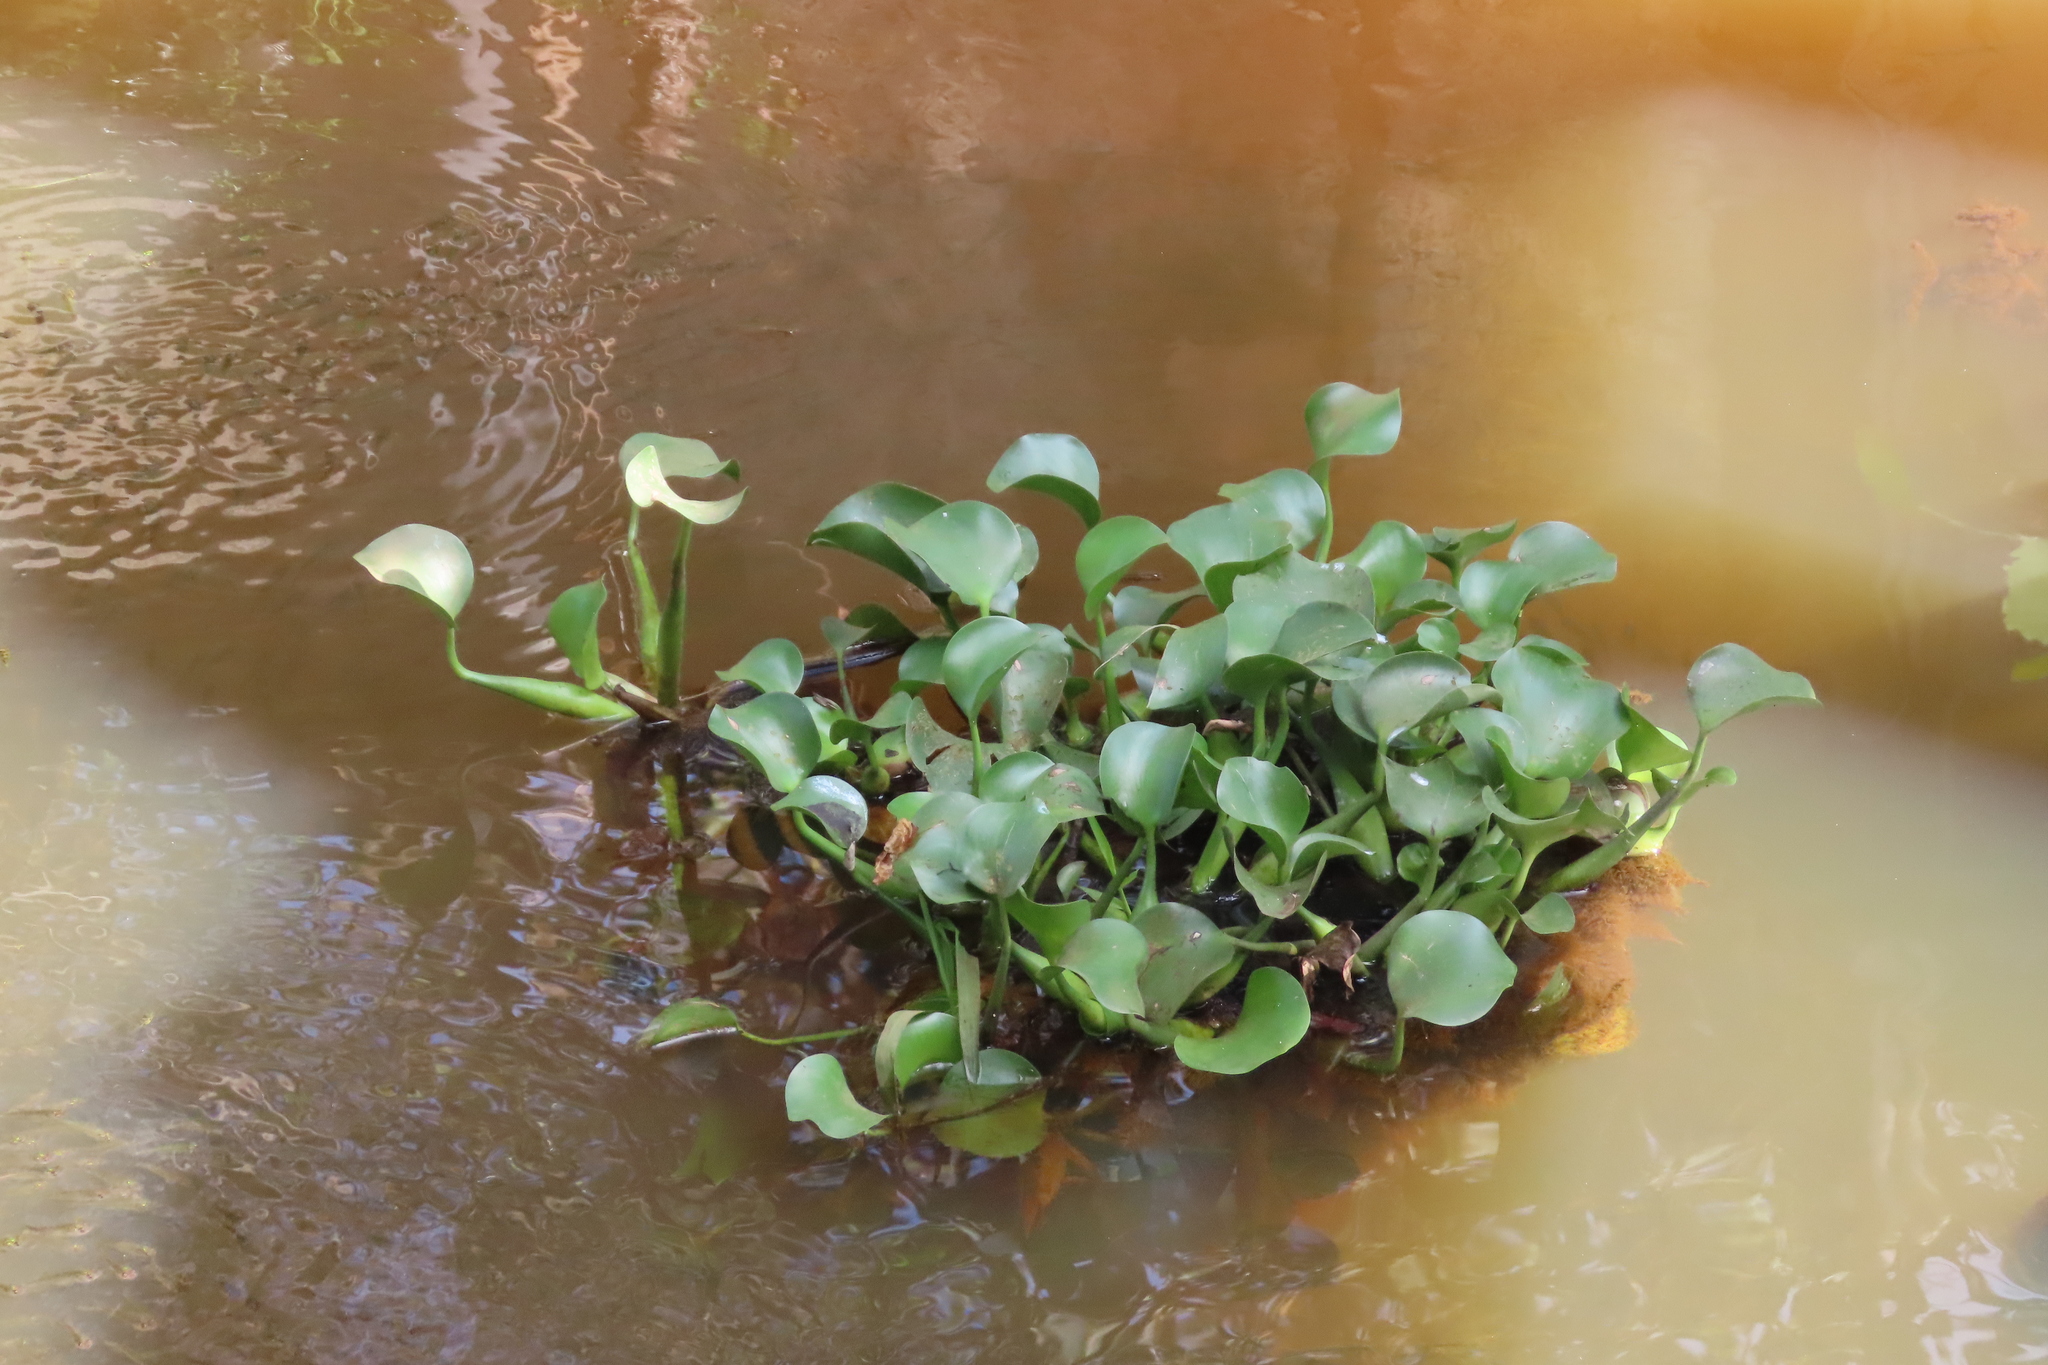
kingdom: Plantae
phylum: Tracheophyta
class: Liliopsida
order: Commelinales
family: Pontederiaceae
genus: Pontederia
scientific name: Pontederia crassipes
